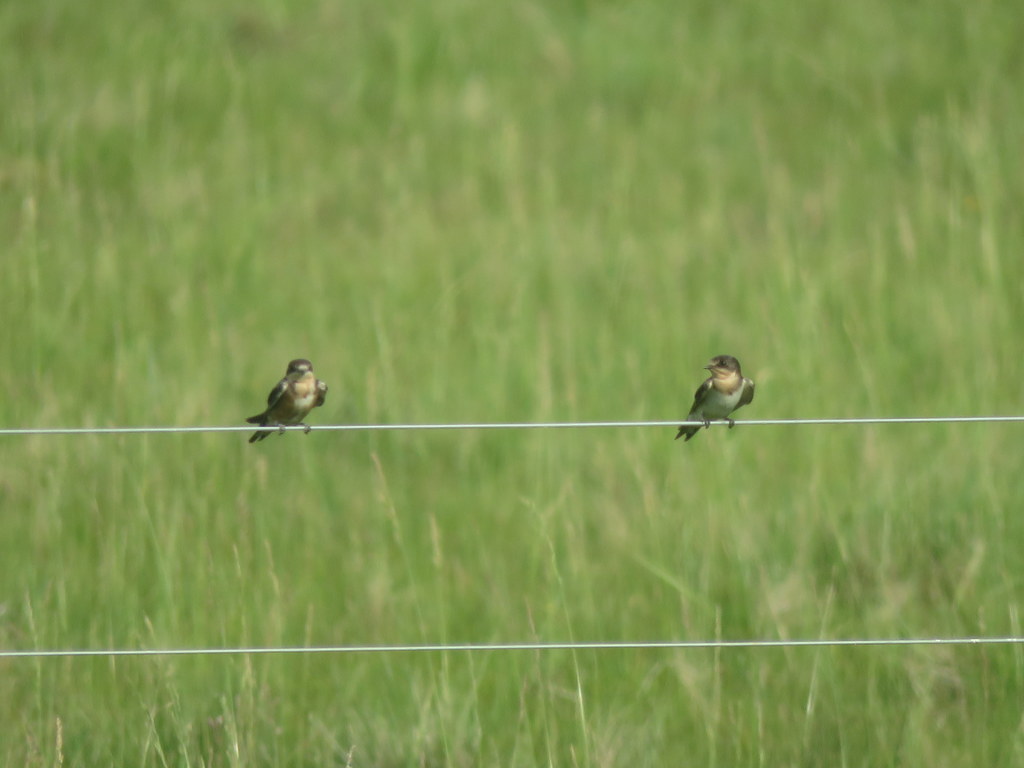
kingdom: Animalia
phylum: Chordata
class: Aves
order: Passeriformes
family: Hirundinidae
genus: Hirundo
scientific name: Hirundo rustica
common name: Barn swallow
